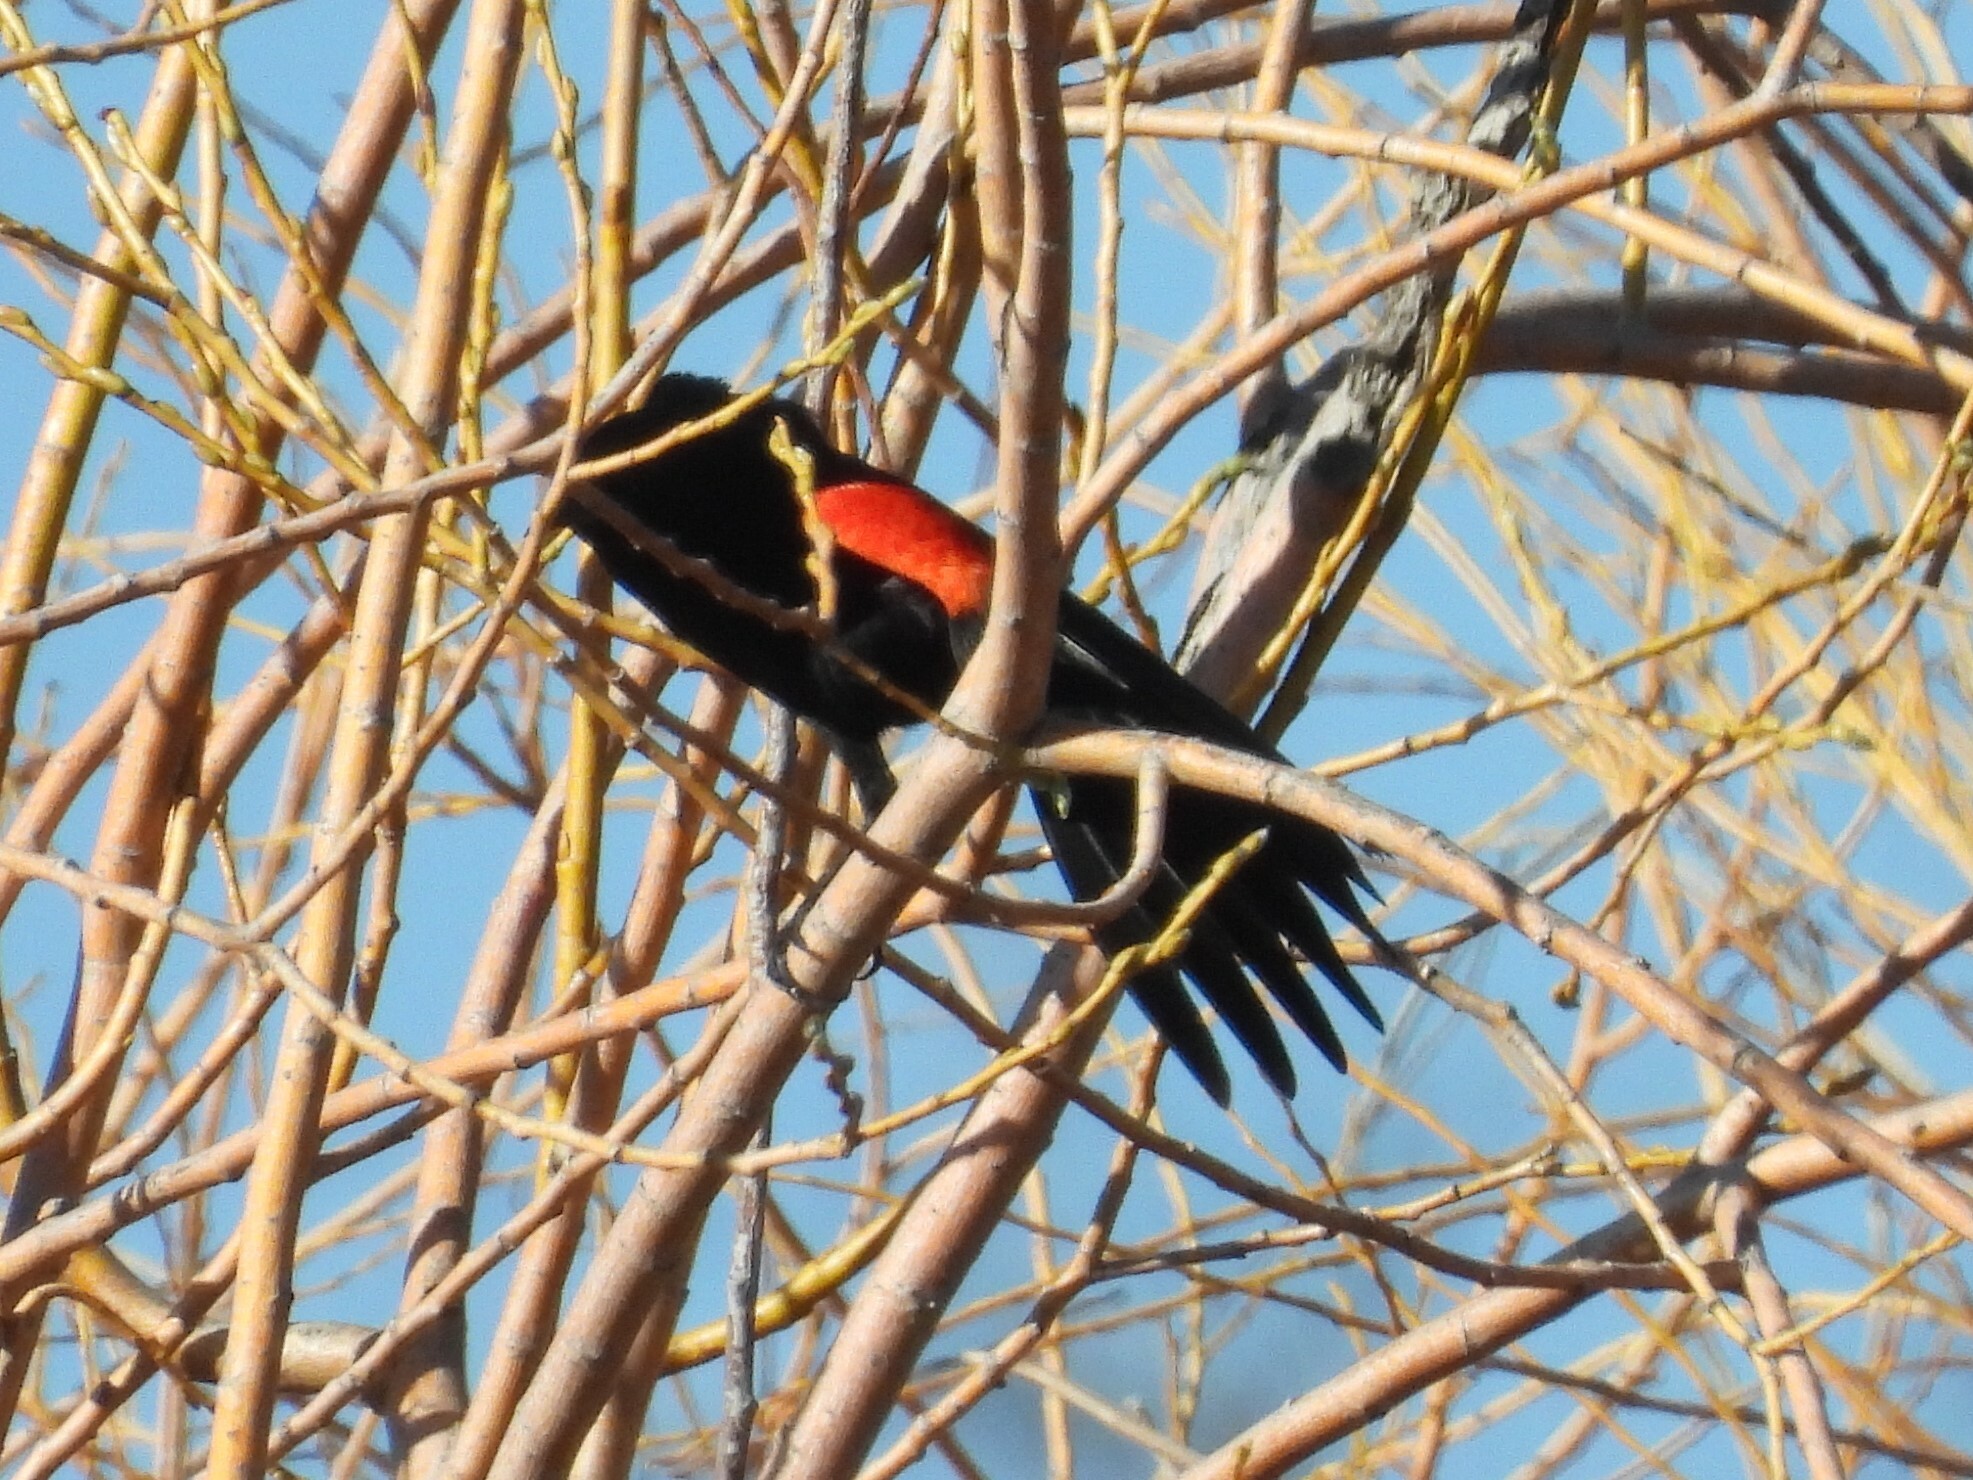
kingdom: Animalia
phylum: Chordata
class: Aves
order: Passeriformes
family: Icteridae
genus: Agelaius
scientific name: Agelaius phoeniceus
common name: Red-winged blackbird
